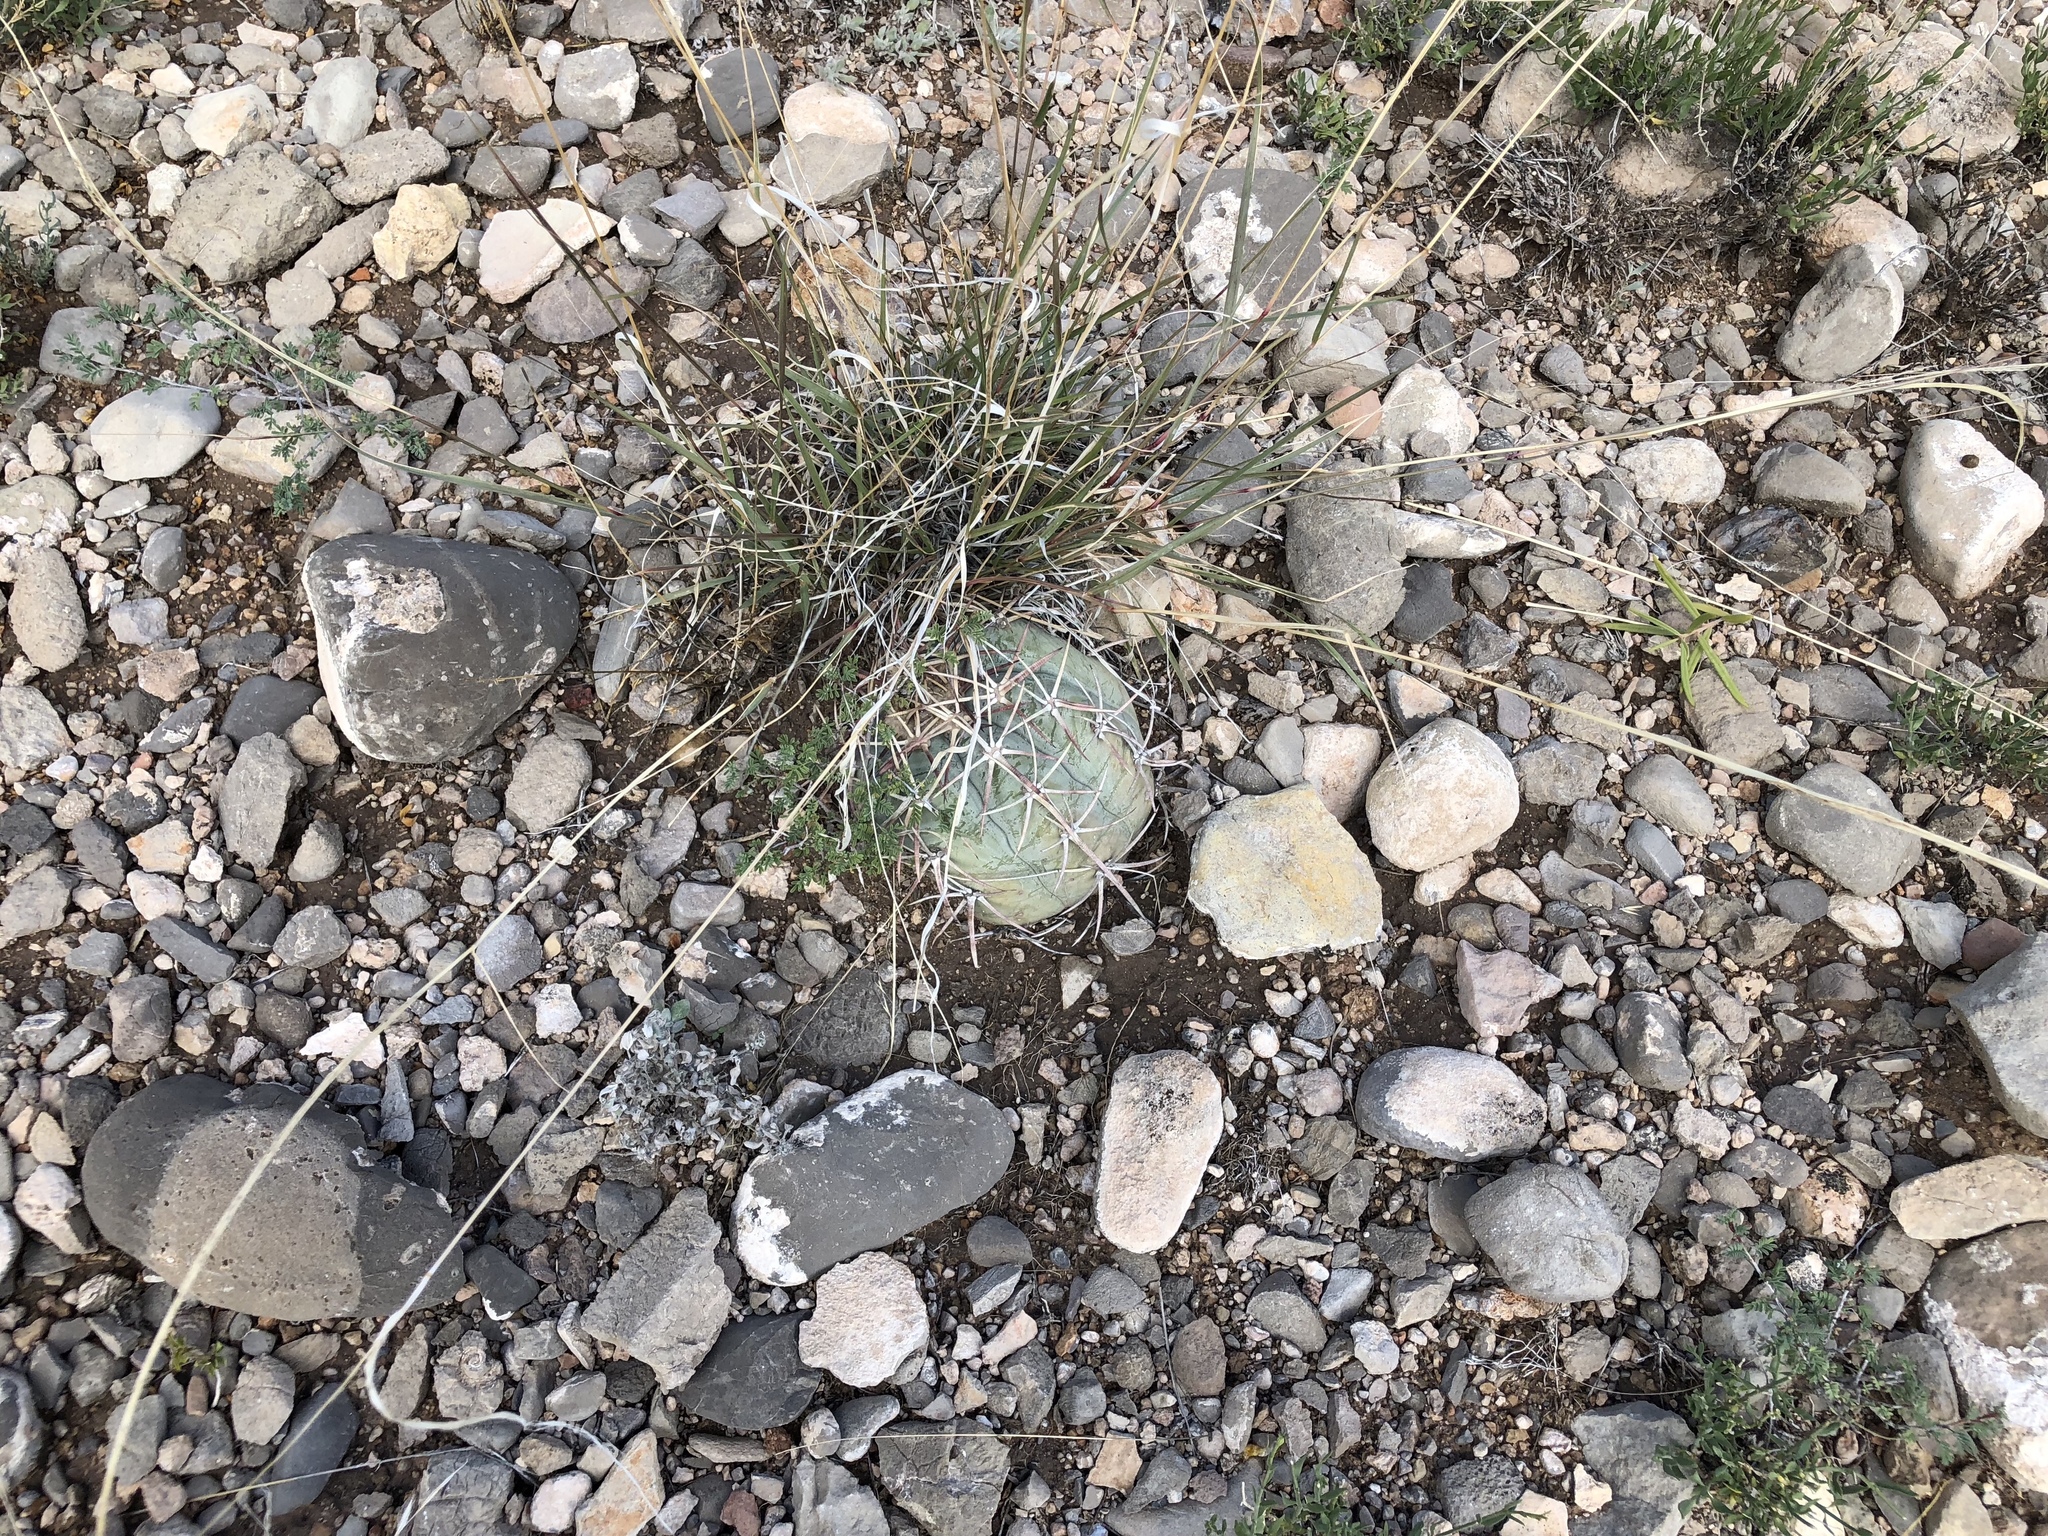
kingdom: Plantae
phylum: Tracheophyta
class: Magnoliopsida
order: Caryophyllales
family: Cactaceae
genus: Echinocactus
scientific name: Echinocactus horizonthalonius
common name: Devilshead
